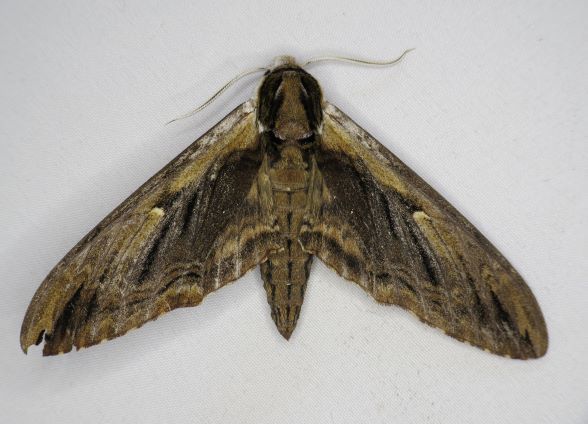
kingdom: Animalia
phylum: Arthropoda
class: Insecta
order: Lepidoptera
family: Sphingidae
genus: Ceratomia
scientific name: Ceratomia amyntor
